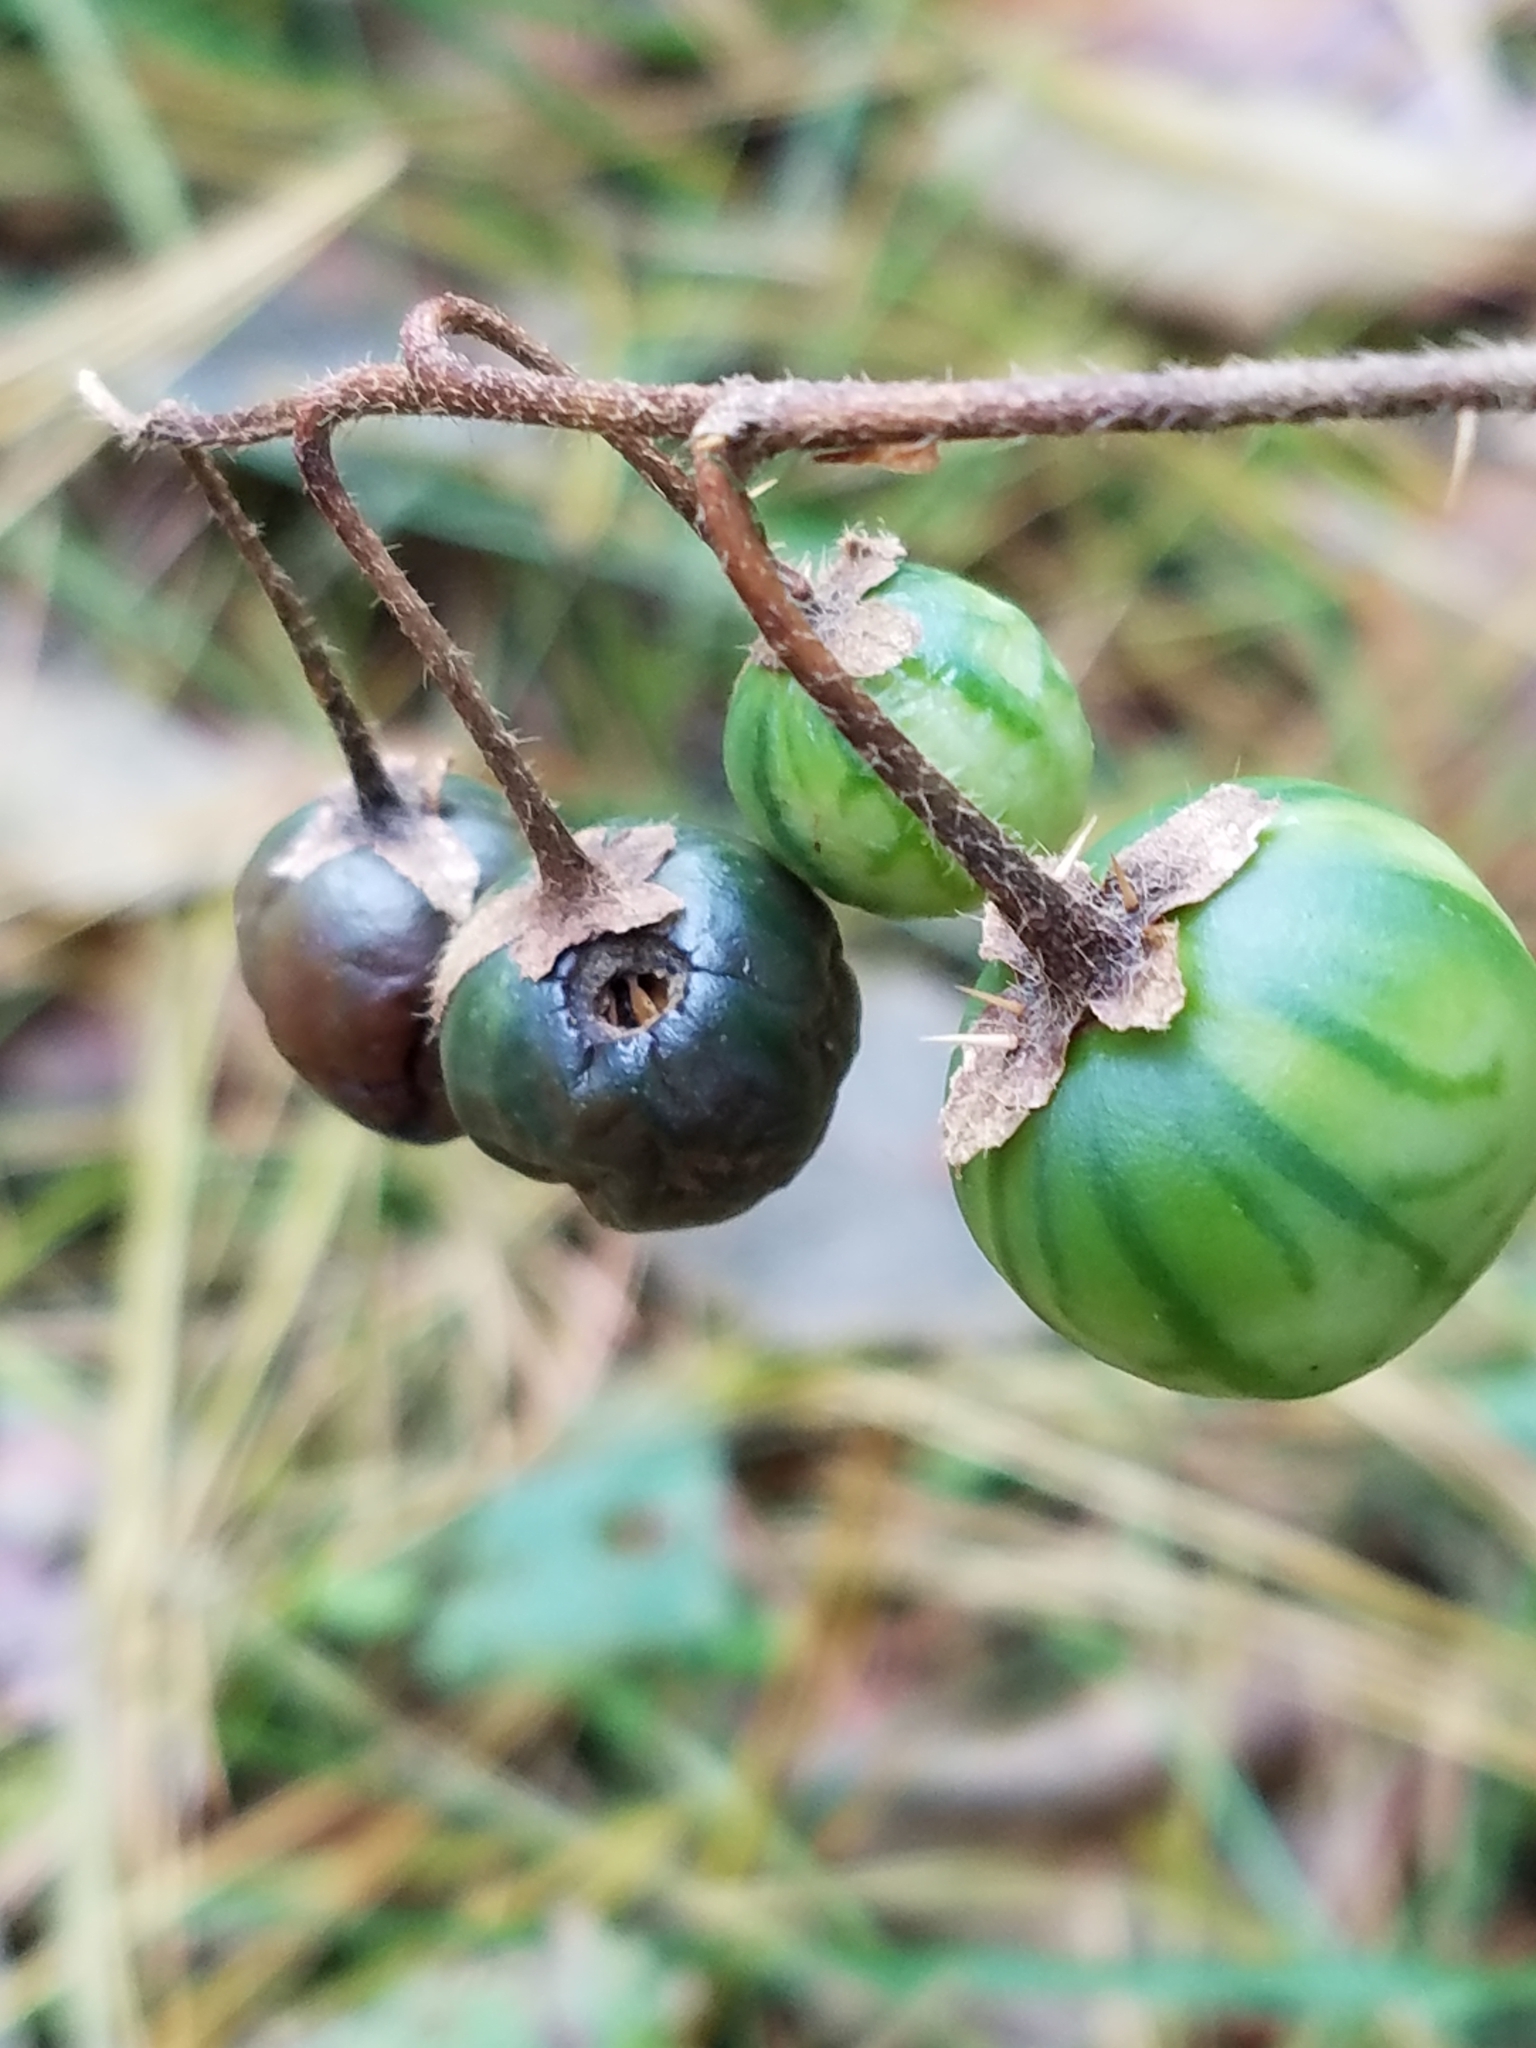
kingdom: Plantae
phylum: Tracheophyta
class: Magnoliopsida
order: Solanales
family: Solanaceae
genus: Solanum
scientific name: Solanum carolinense
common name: Horse-nettle
